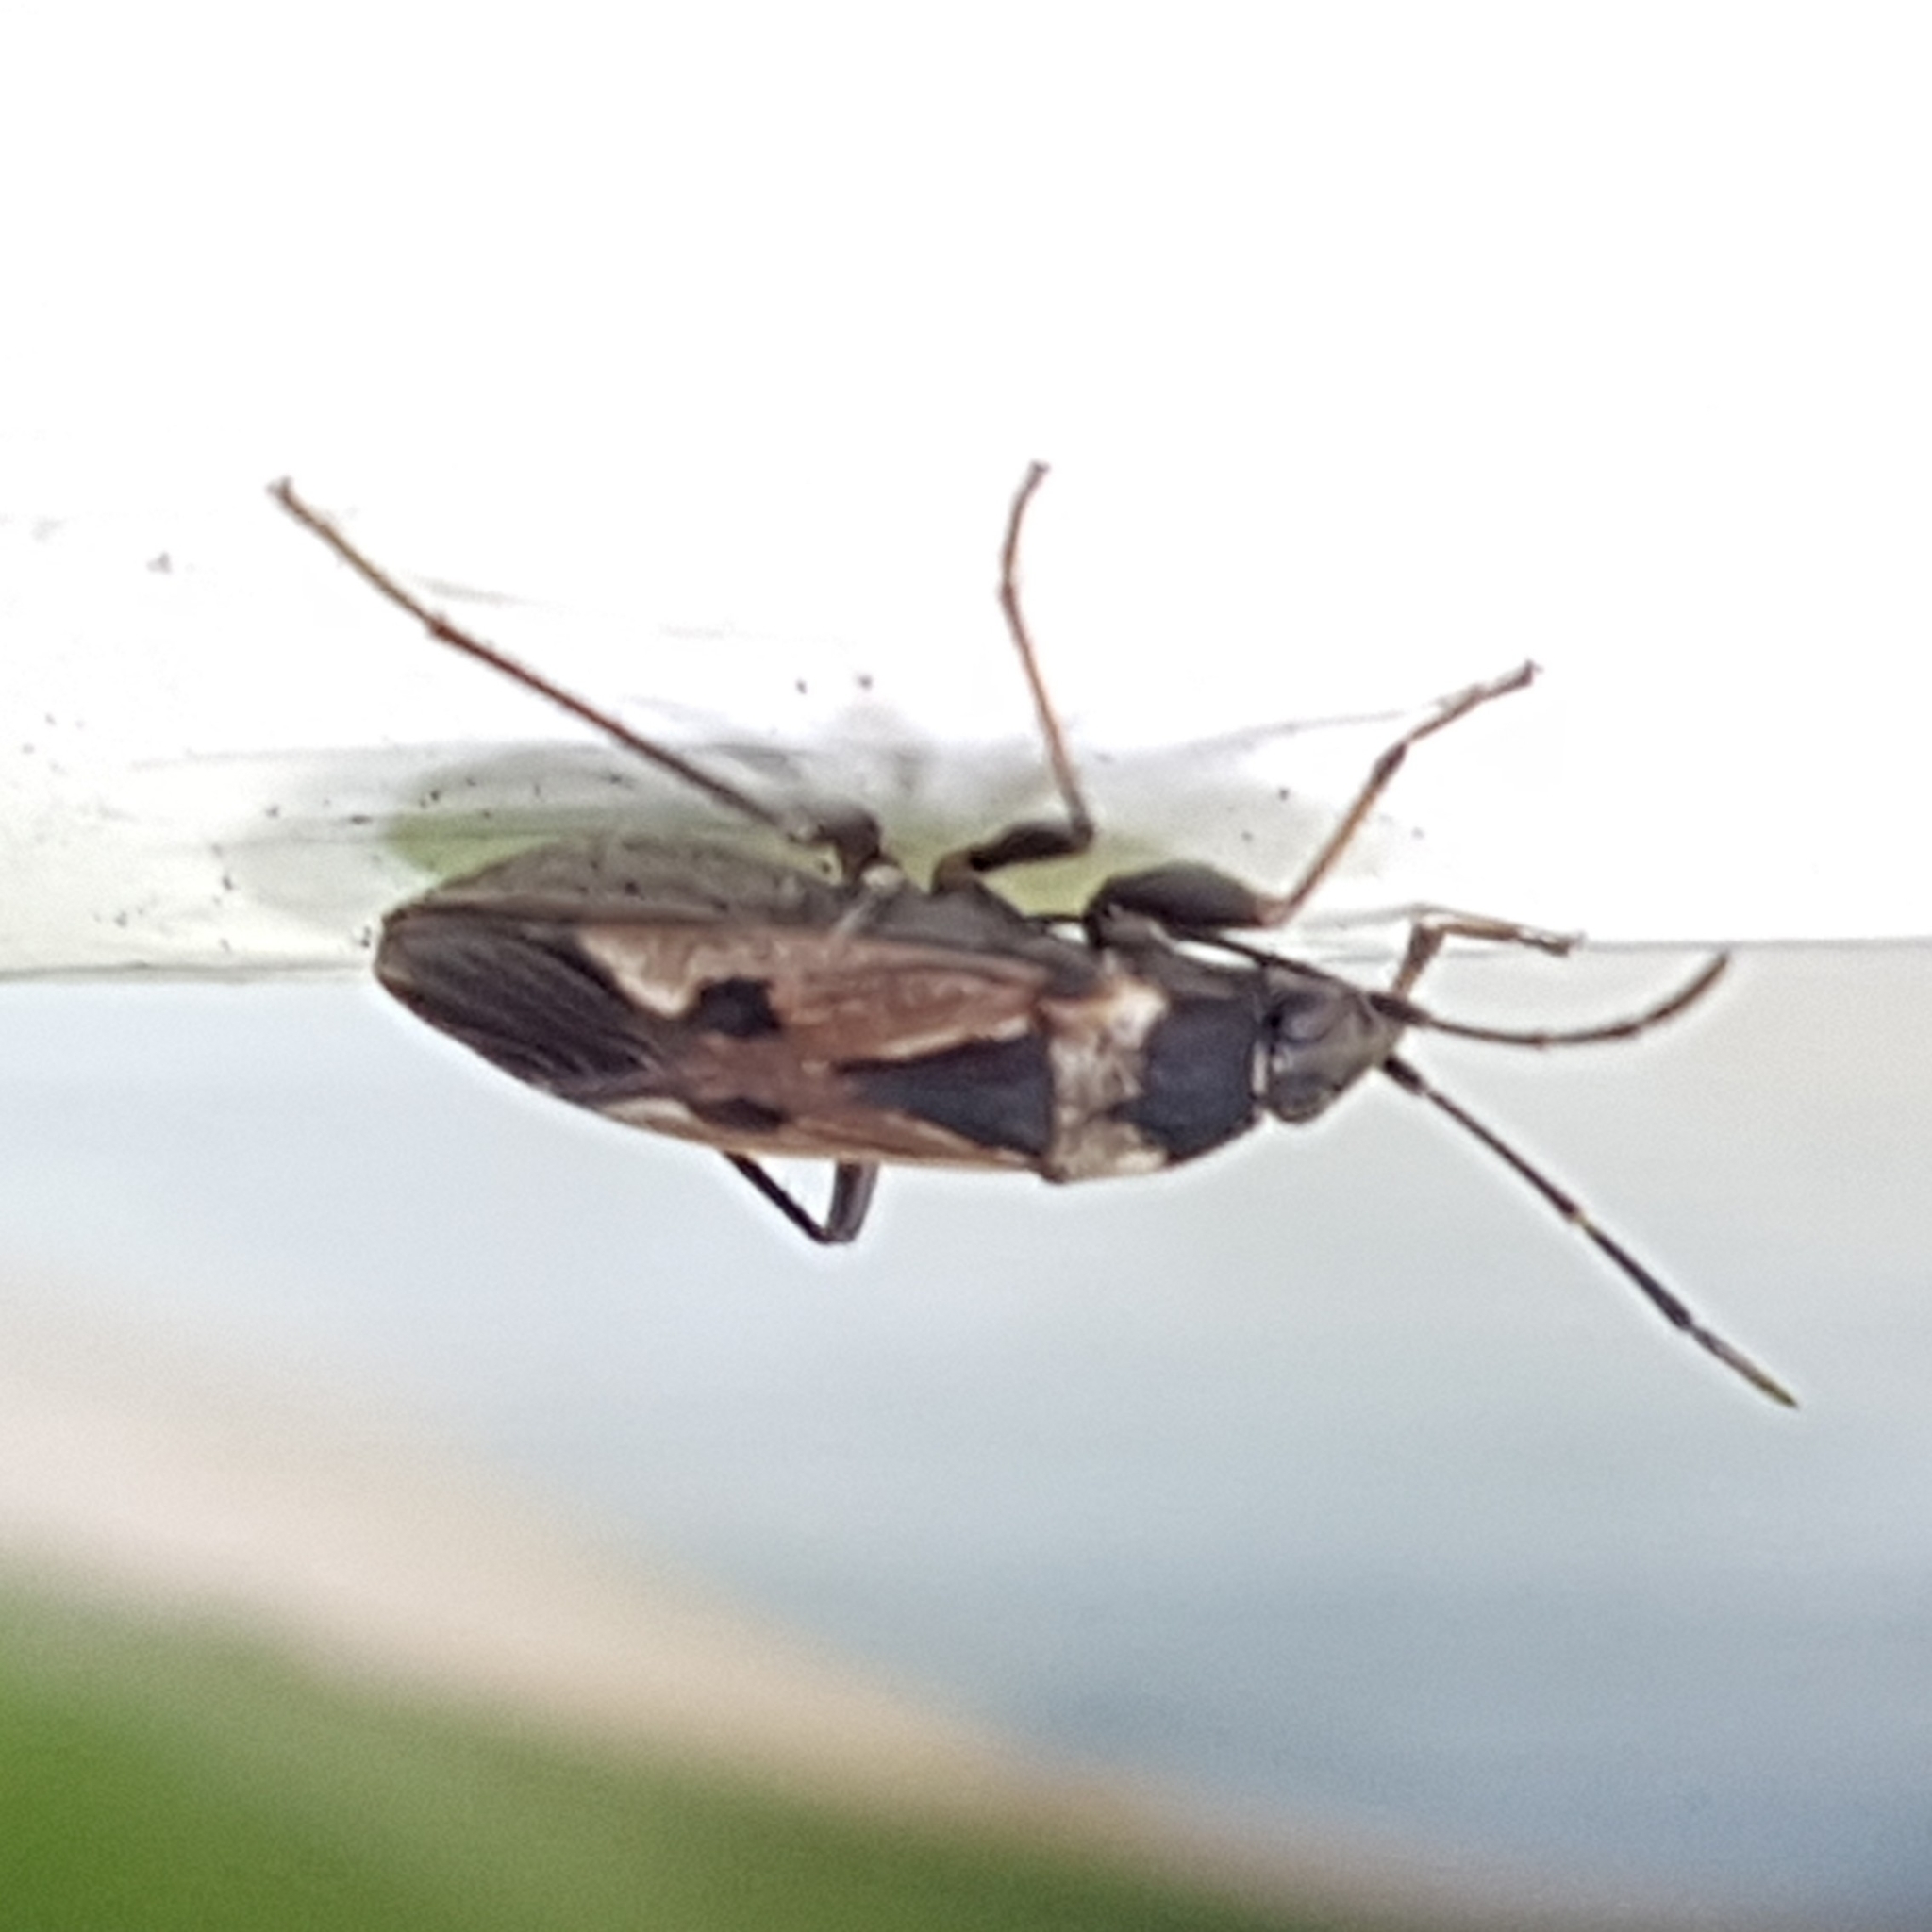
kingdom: Animalia
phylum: Arthropoda
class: Insecta
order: Hemiptera
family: Rhyparochromidae
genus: Rhyparochromus
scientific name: Rhyparochromus vulgaris
